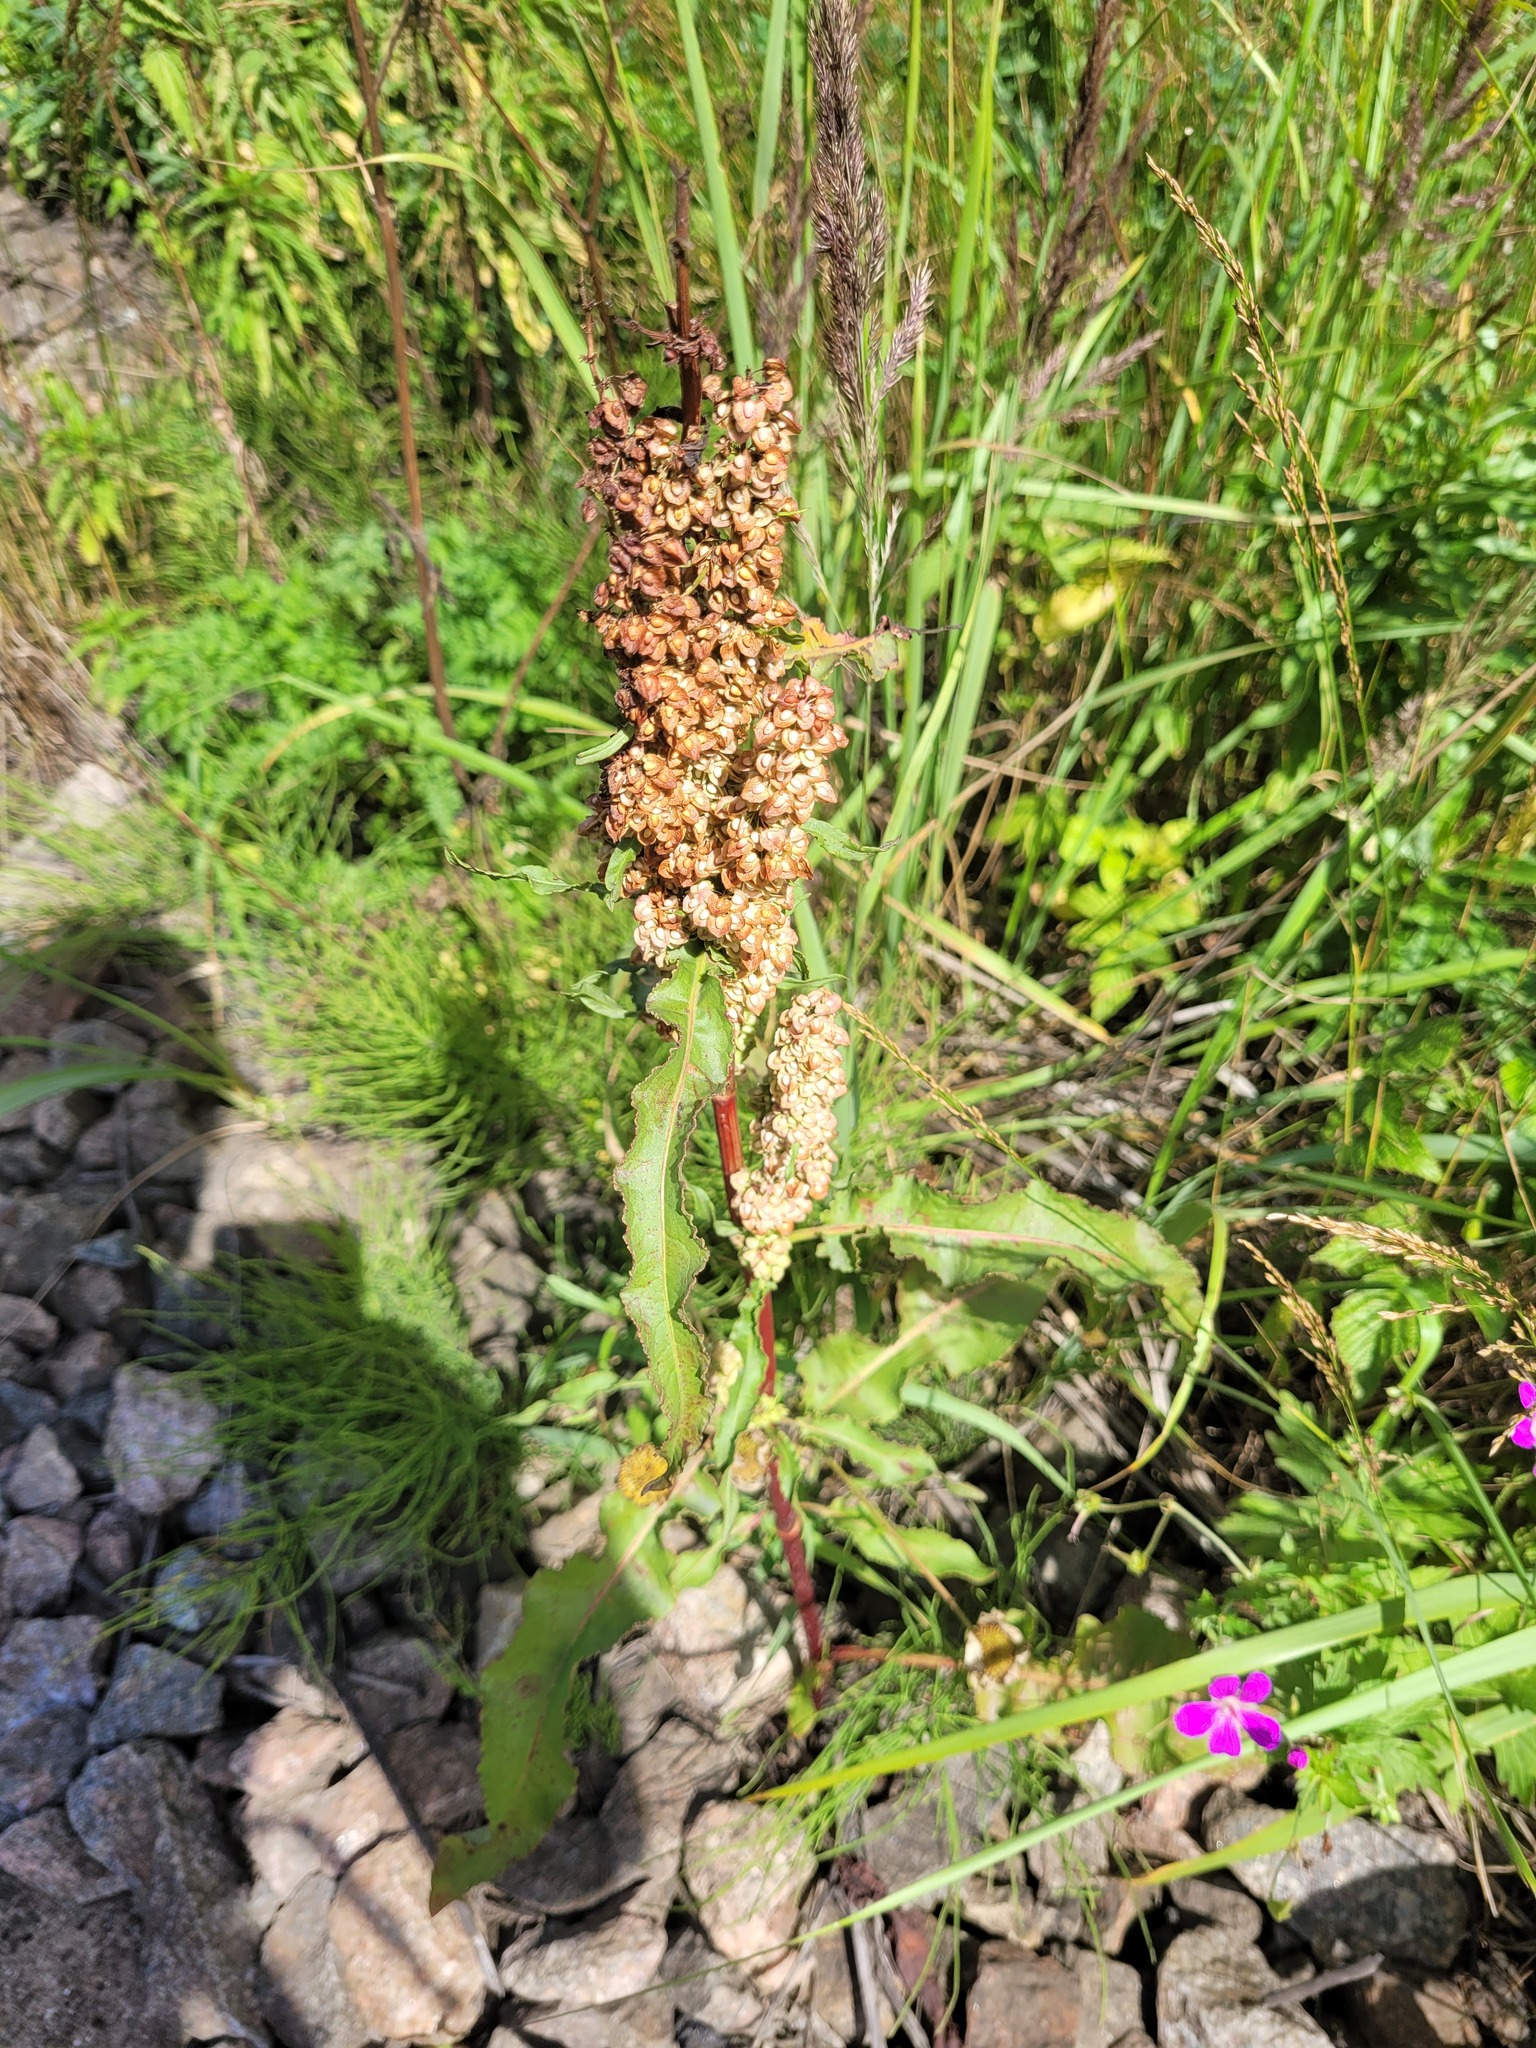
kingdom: Plantae
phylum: Tracheophyta
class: Magnoliopsida
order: Caryophyllales
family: Polygonaceae
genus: Rumex
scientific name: Rumex crispus
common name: Curled dock
